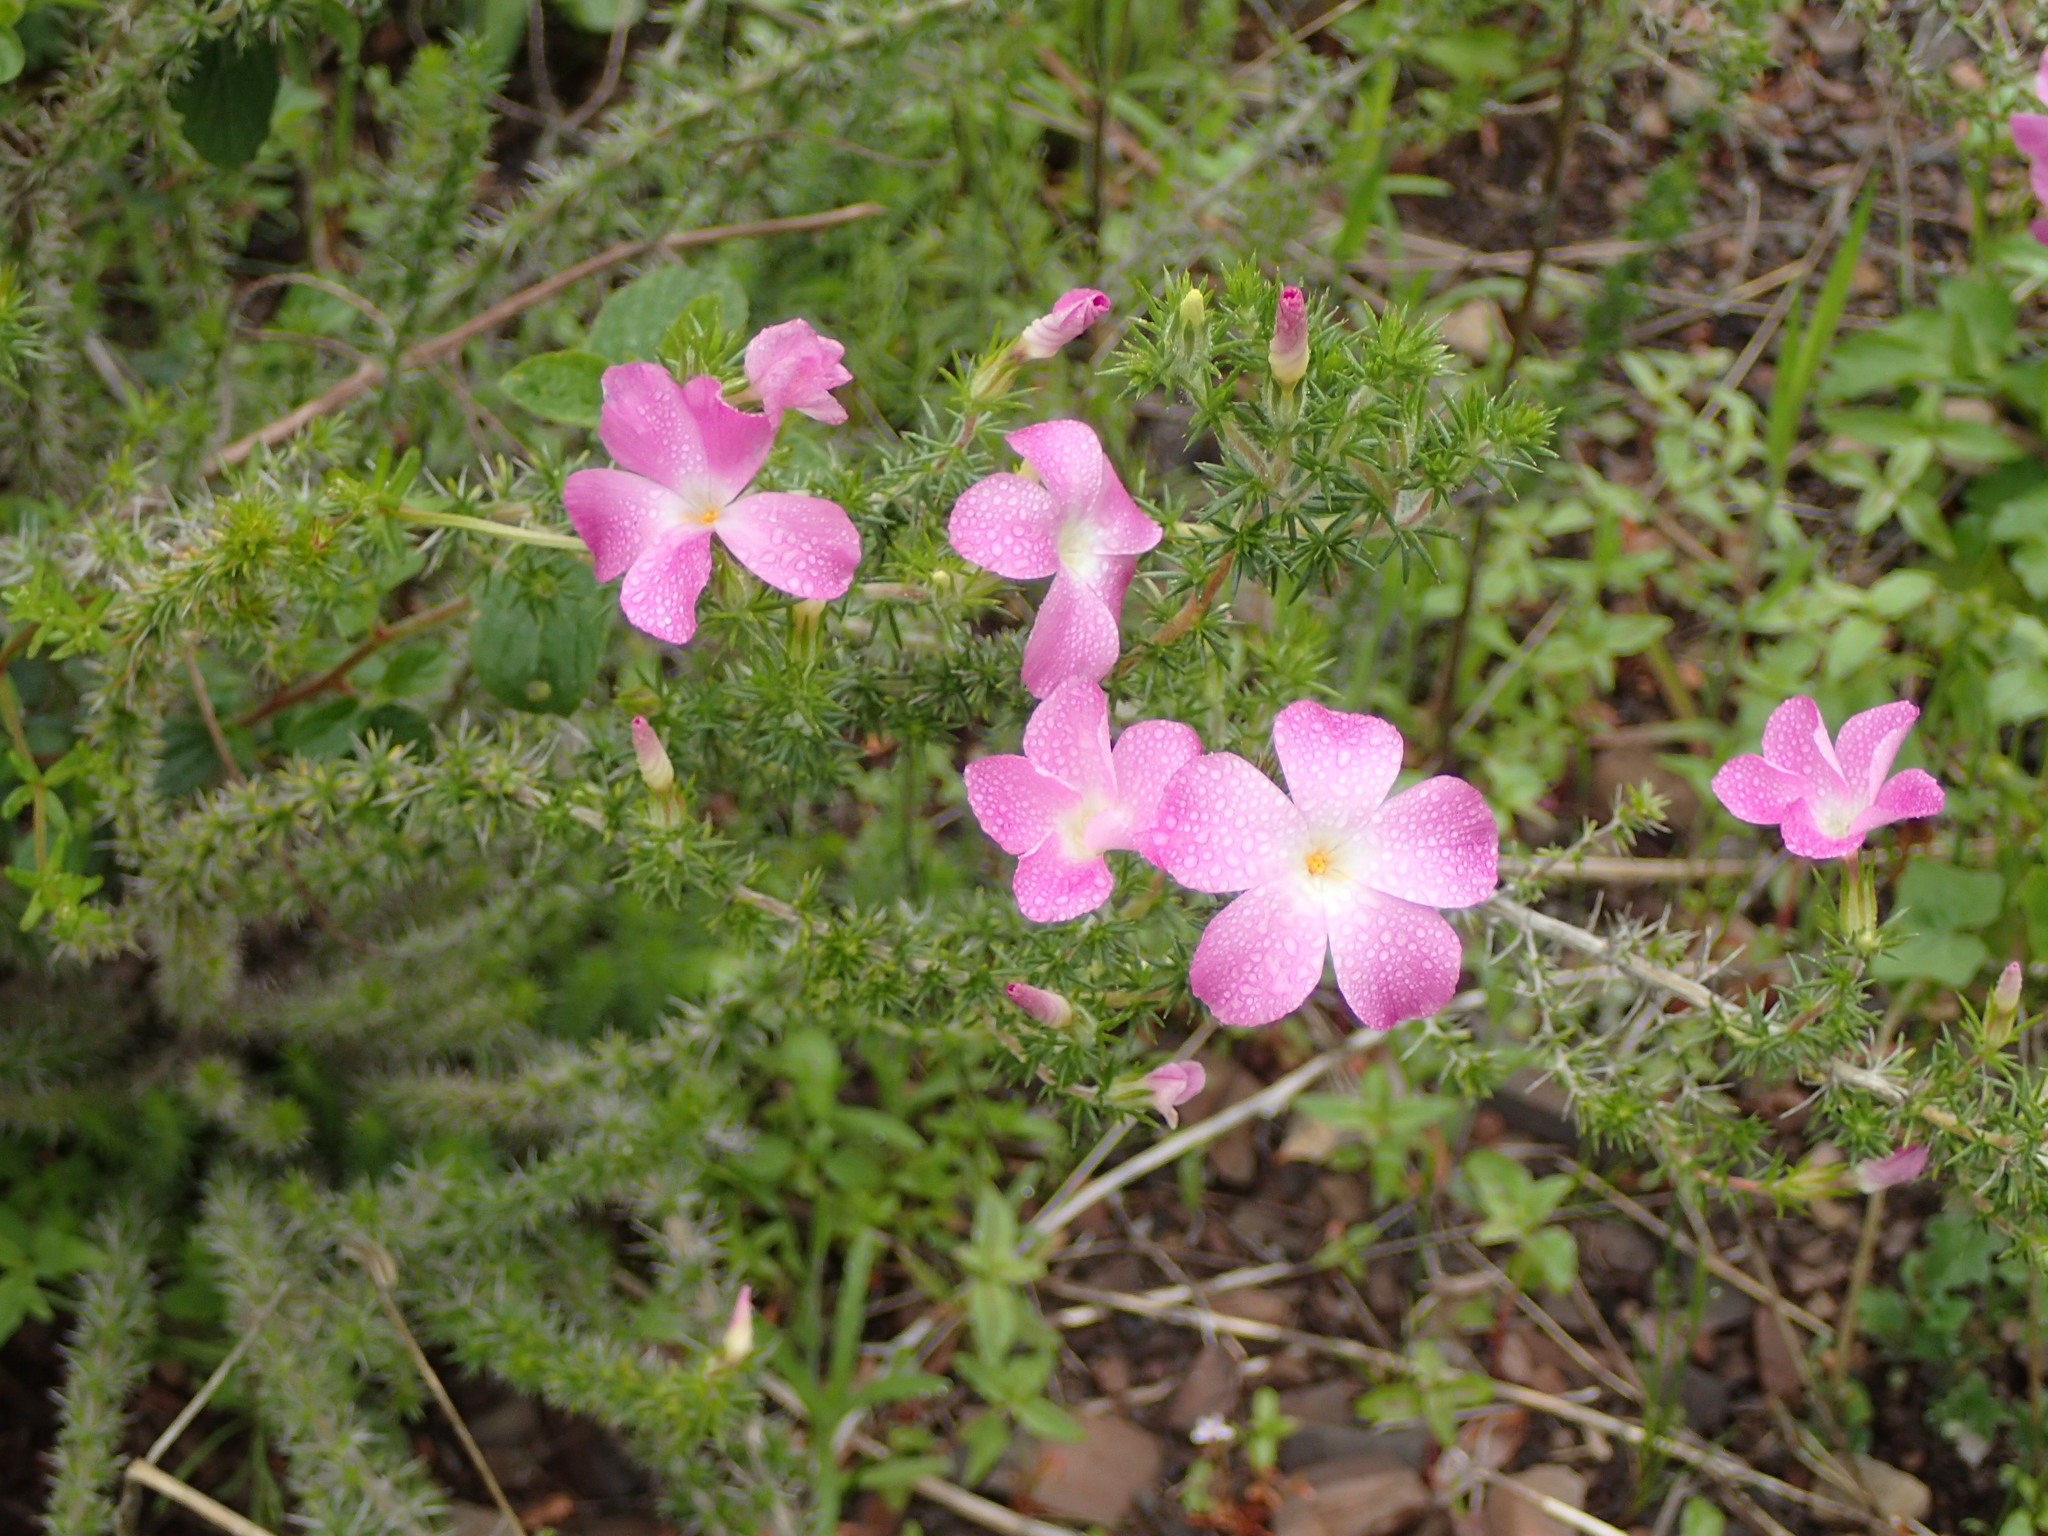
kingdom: Plantae
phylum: Tracheophyta
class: Magnoliopsida
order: Ericales
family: Polemoniaceae
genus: Linanthus
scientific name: Linanthus californicus
